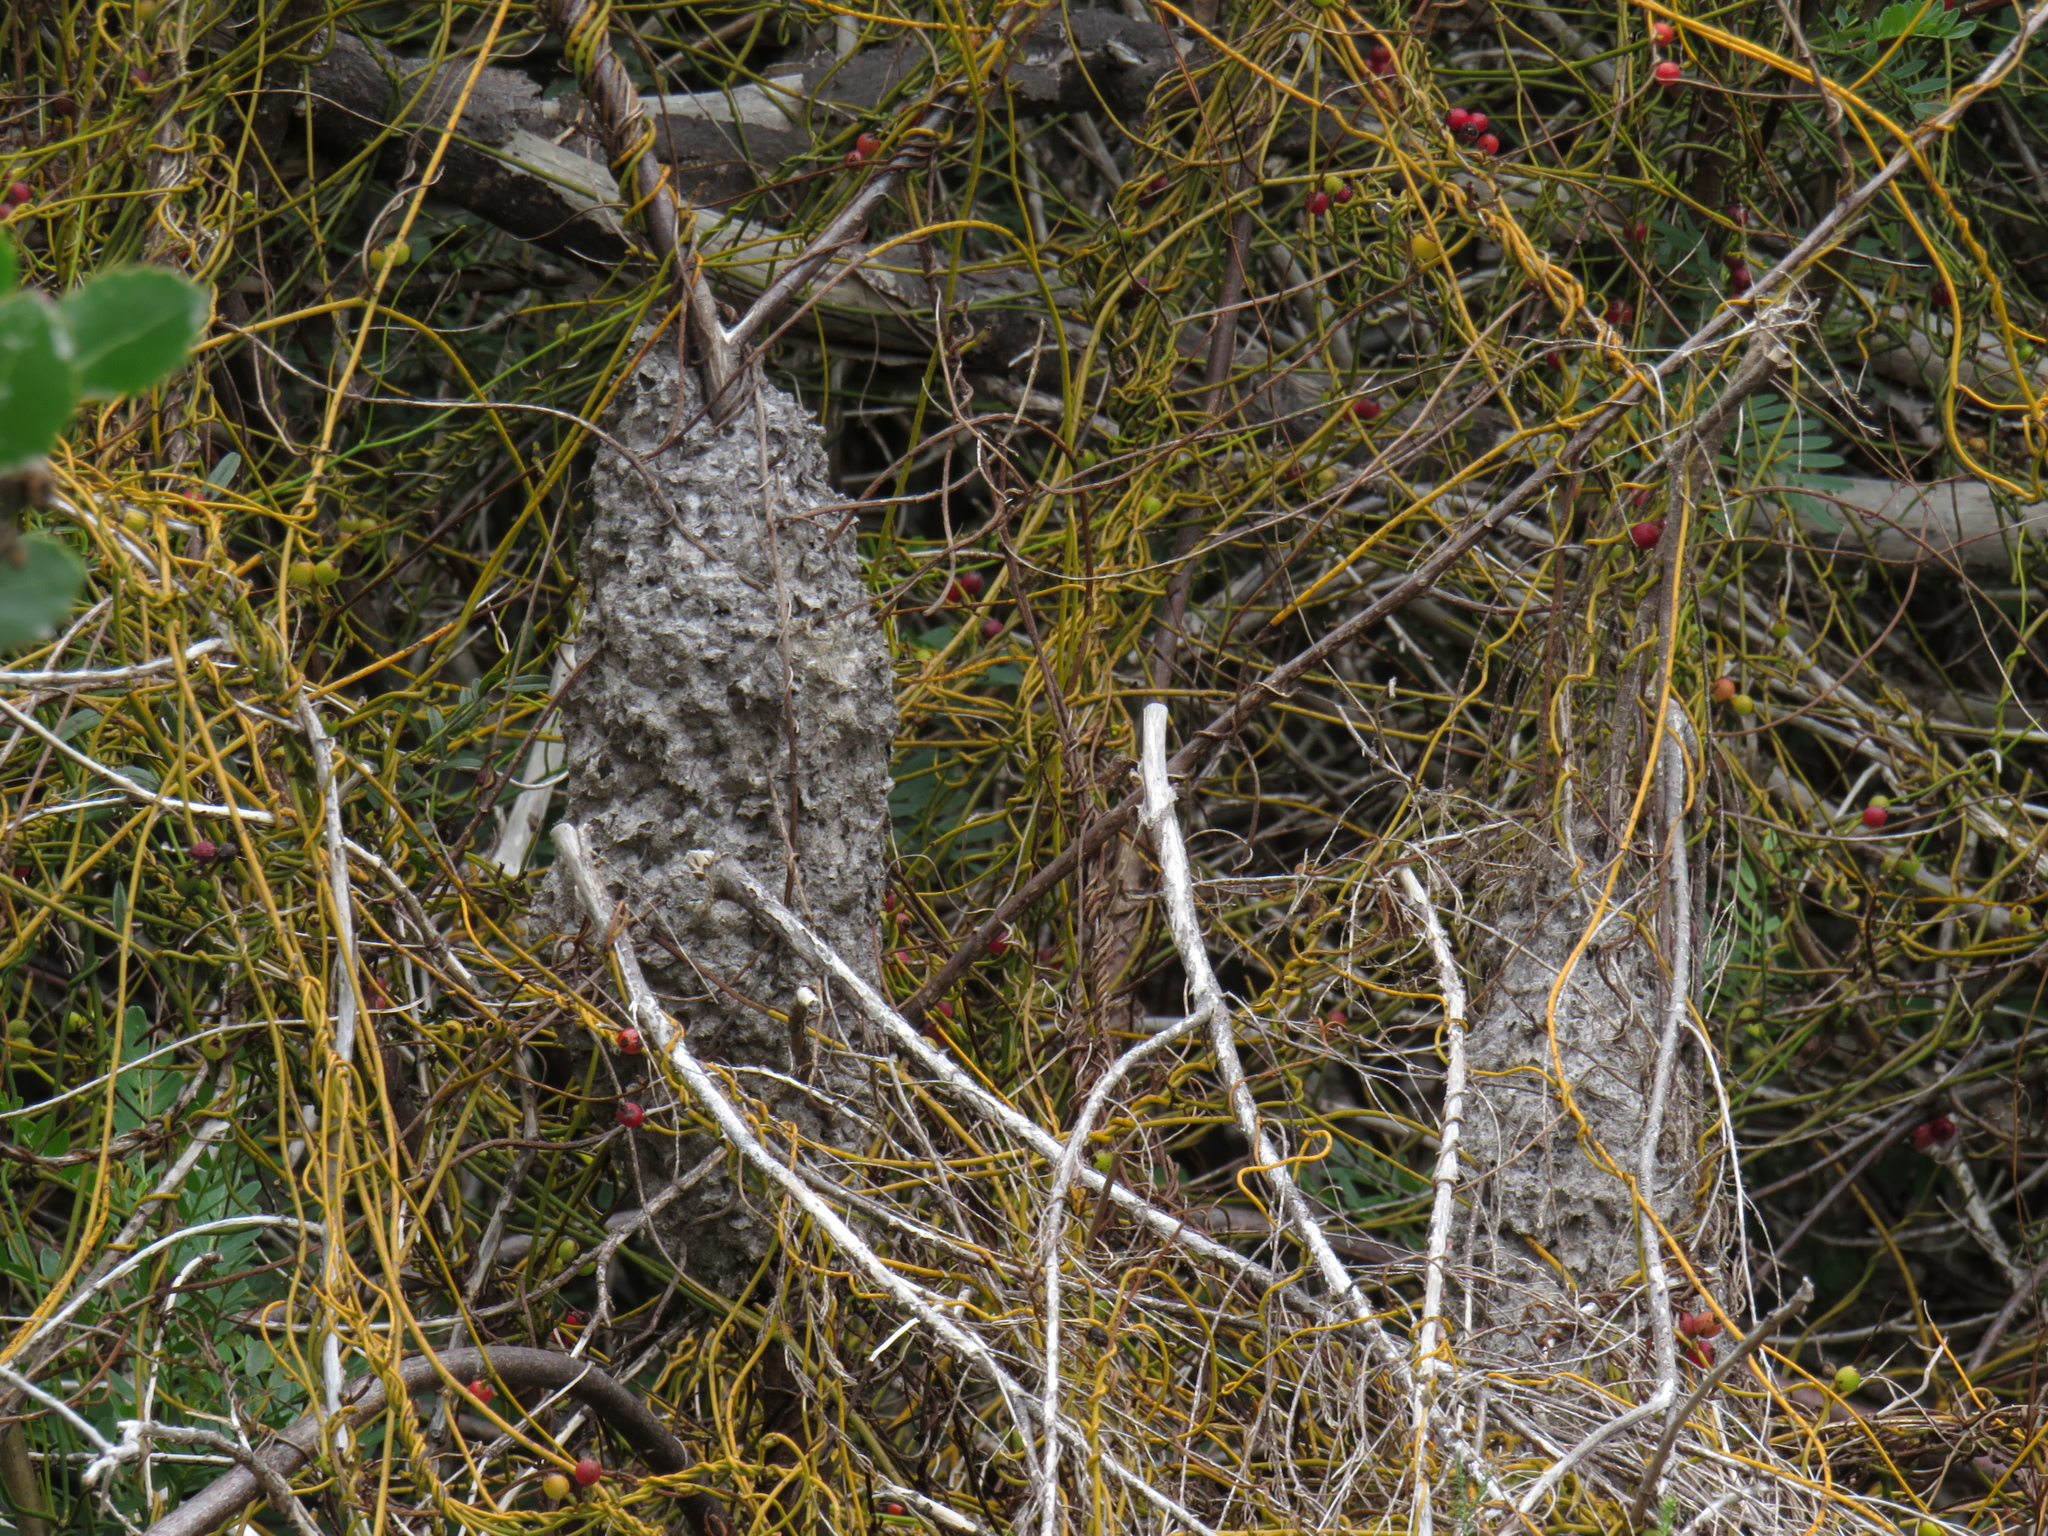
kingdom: Animalia
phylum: Arthropoda
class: Insecta
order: Hymenoptera
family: Formicidae
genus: Crematogaster
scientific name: Crematogaster peringueyi
